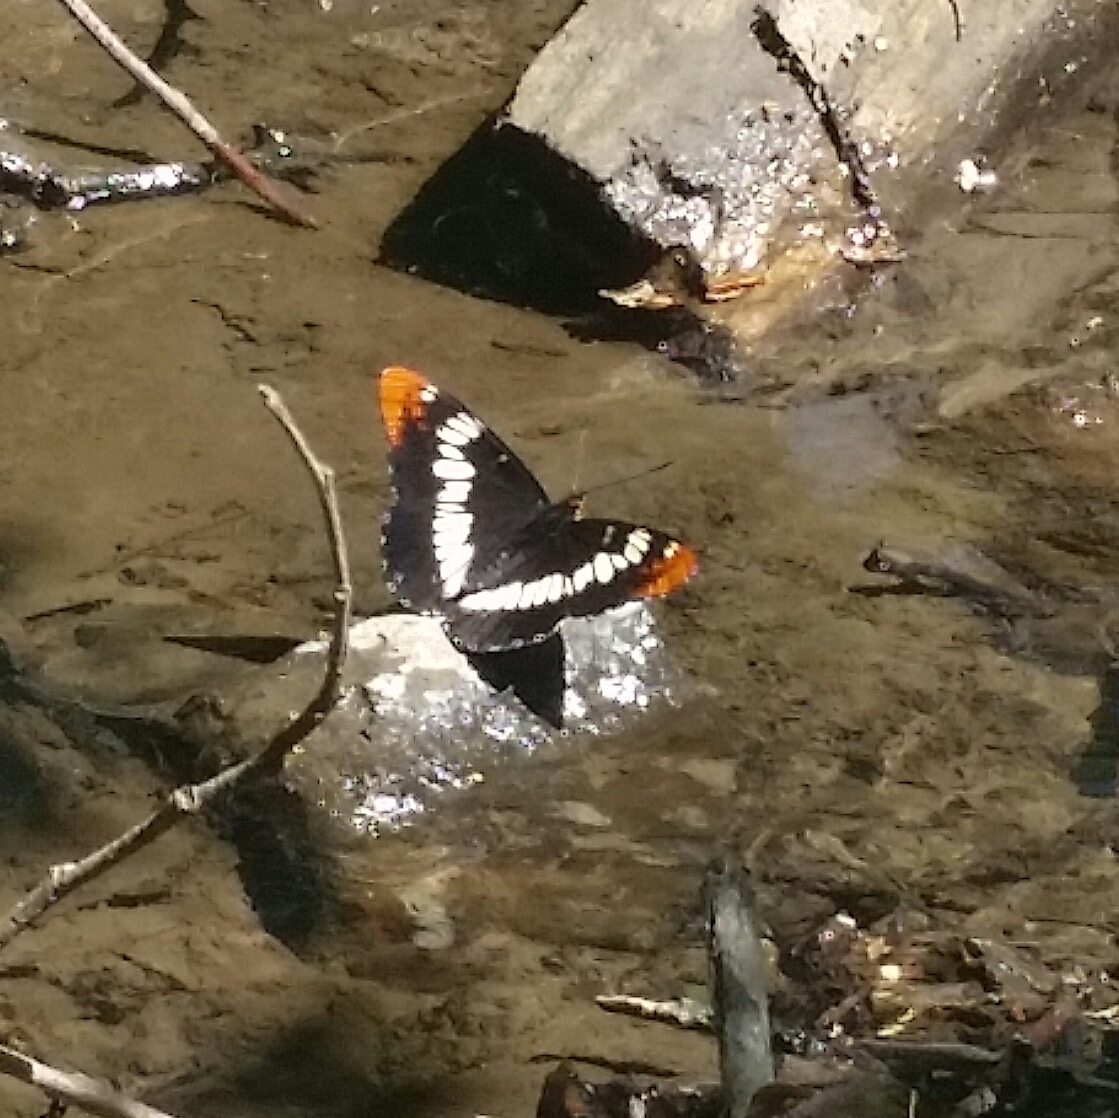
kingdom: Animalia
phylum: Arthropoda
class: Insecta
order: Lepidoptera
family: Nymphalidae
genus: Limenitis
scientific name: Limenitis lorquini
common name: Lorquin's admiral
